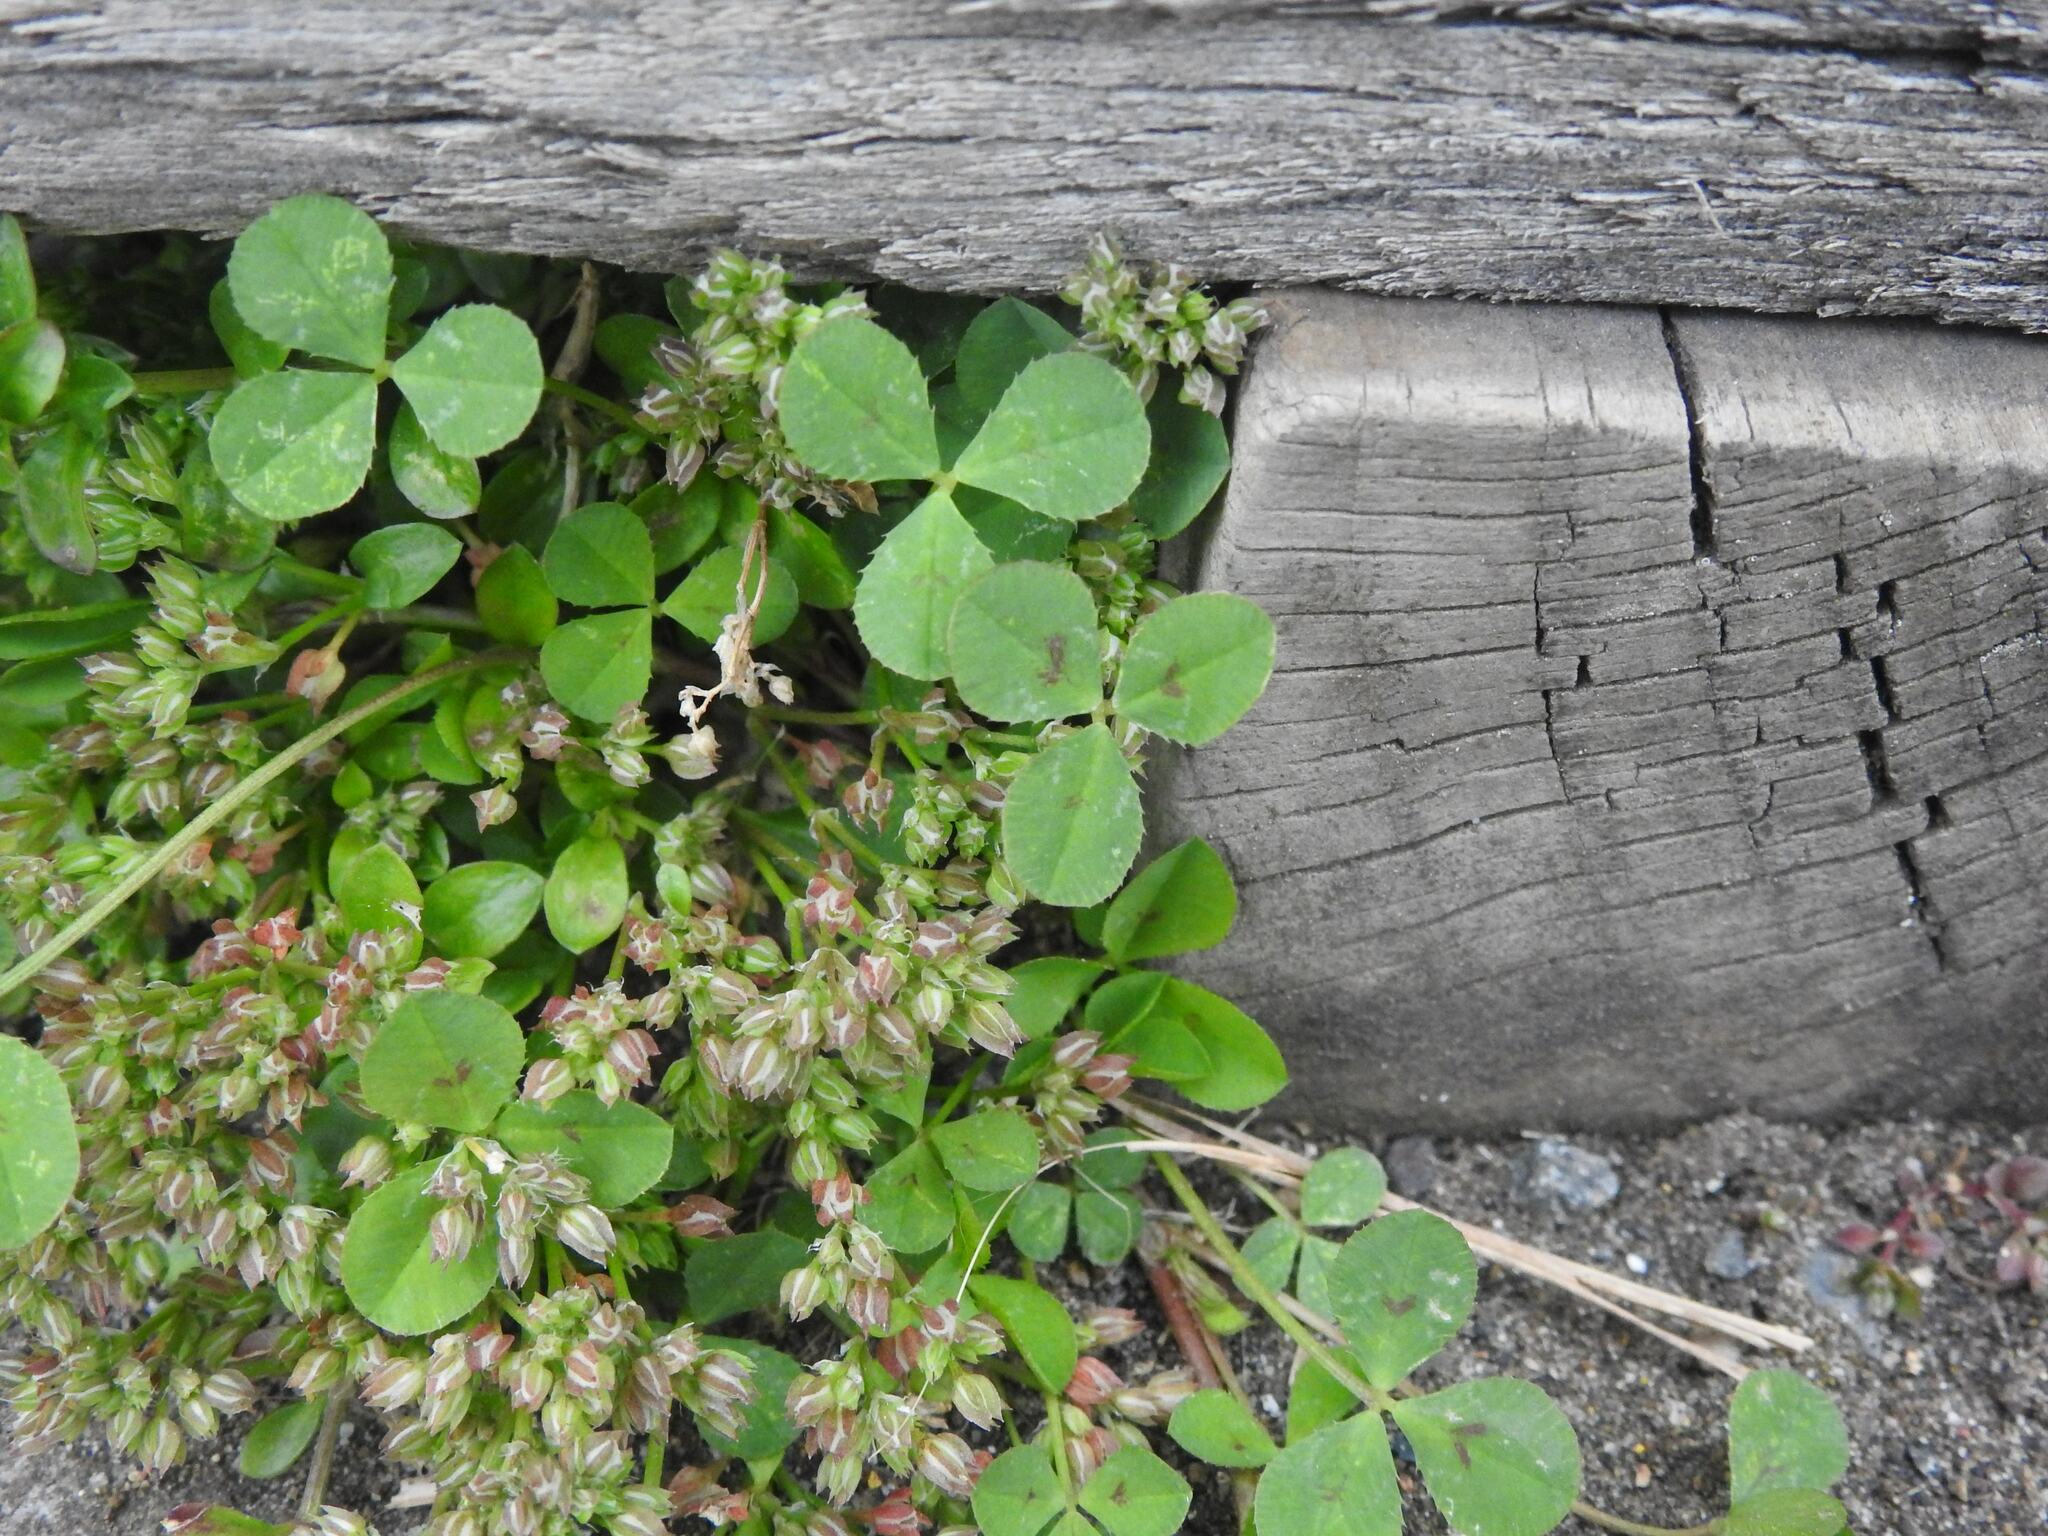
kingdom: Plantae
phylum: Tracheophyta
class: Magnoliopsida
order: Caryophyllales
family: Caryophyllaceae
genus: Polycarpon
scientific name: Polycarpon tetraphyllum
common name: Four-leaved all-seed
